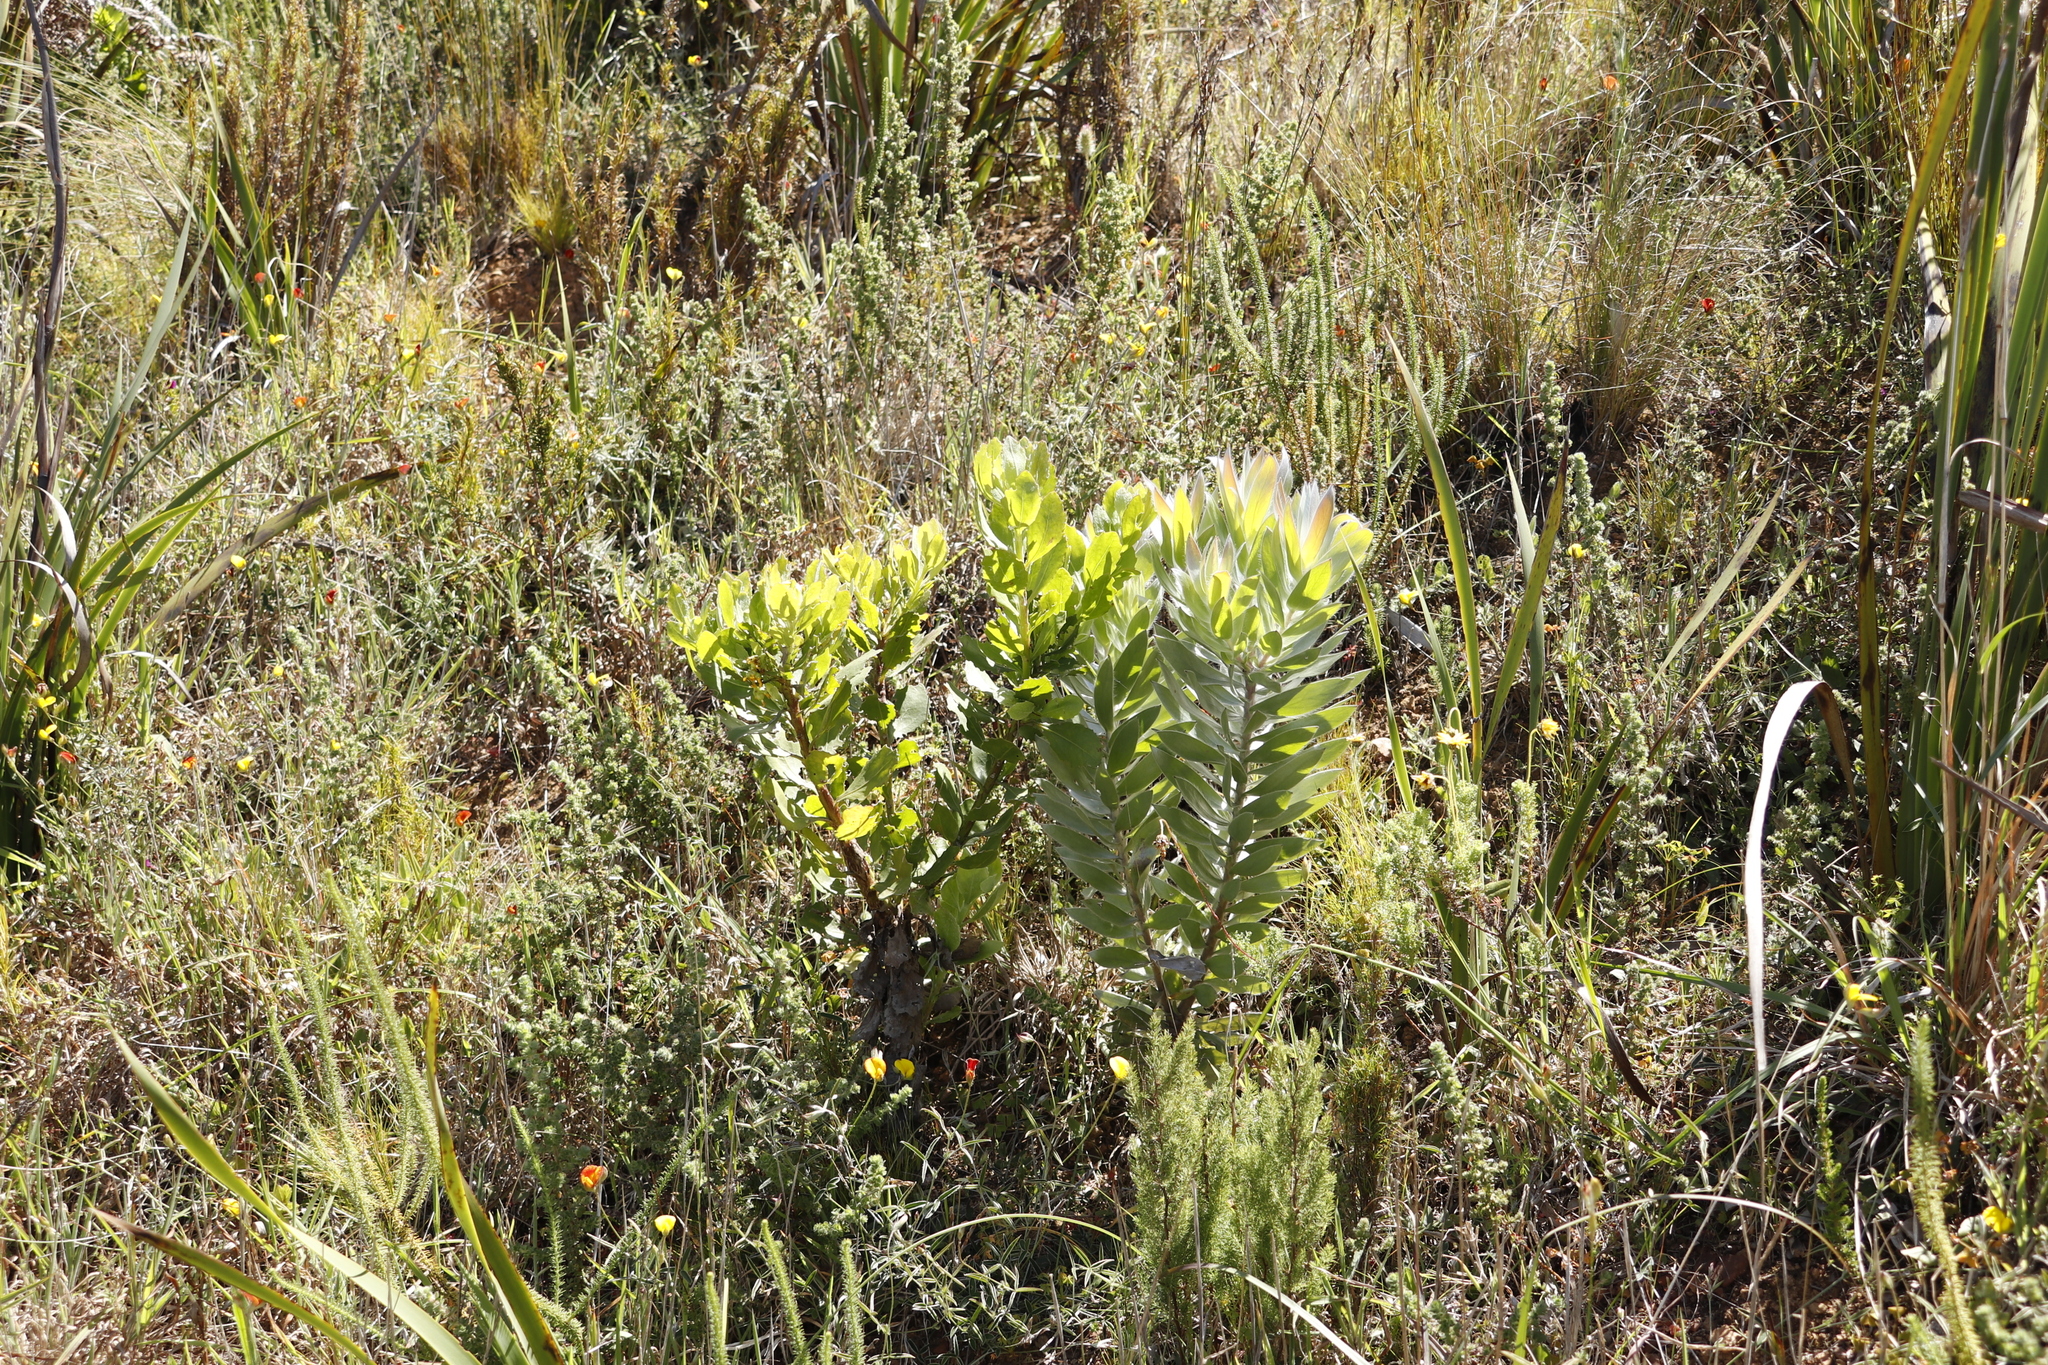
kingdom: Plantae
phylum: Tracheophyta
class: Magnoliopsida
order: Proteales
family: Proteaceae
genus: Leucadendron
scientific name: Leucadendron argenteum
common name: Cape silver tree
